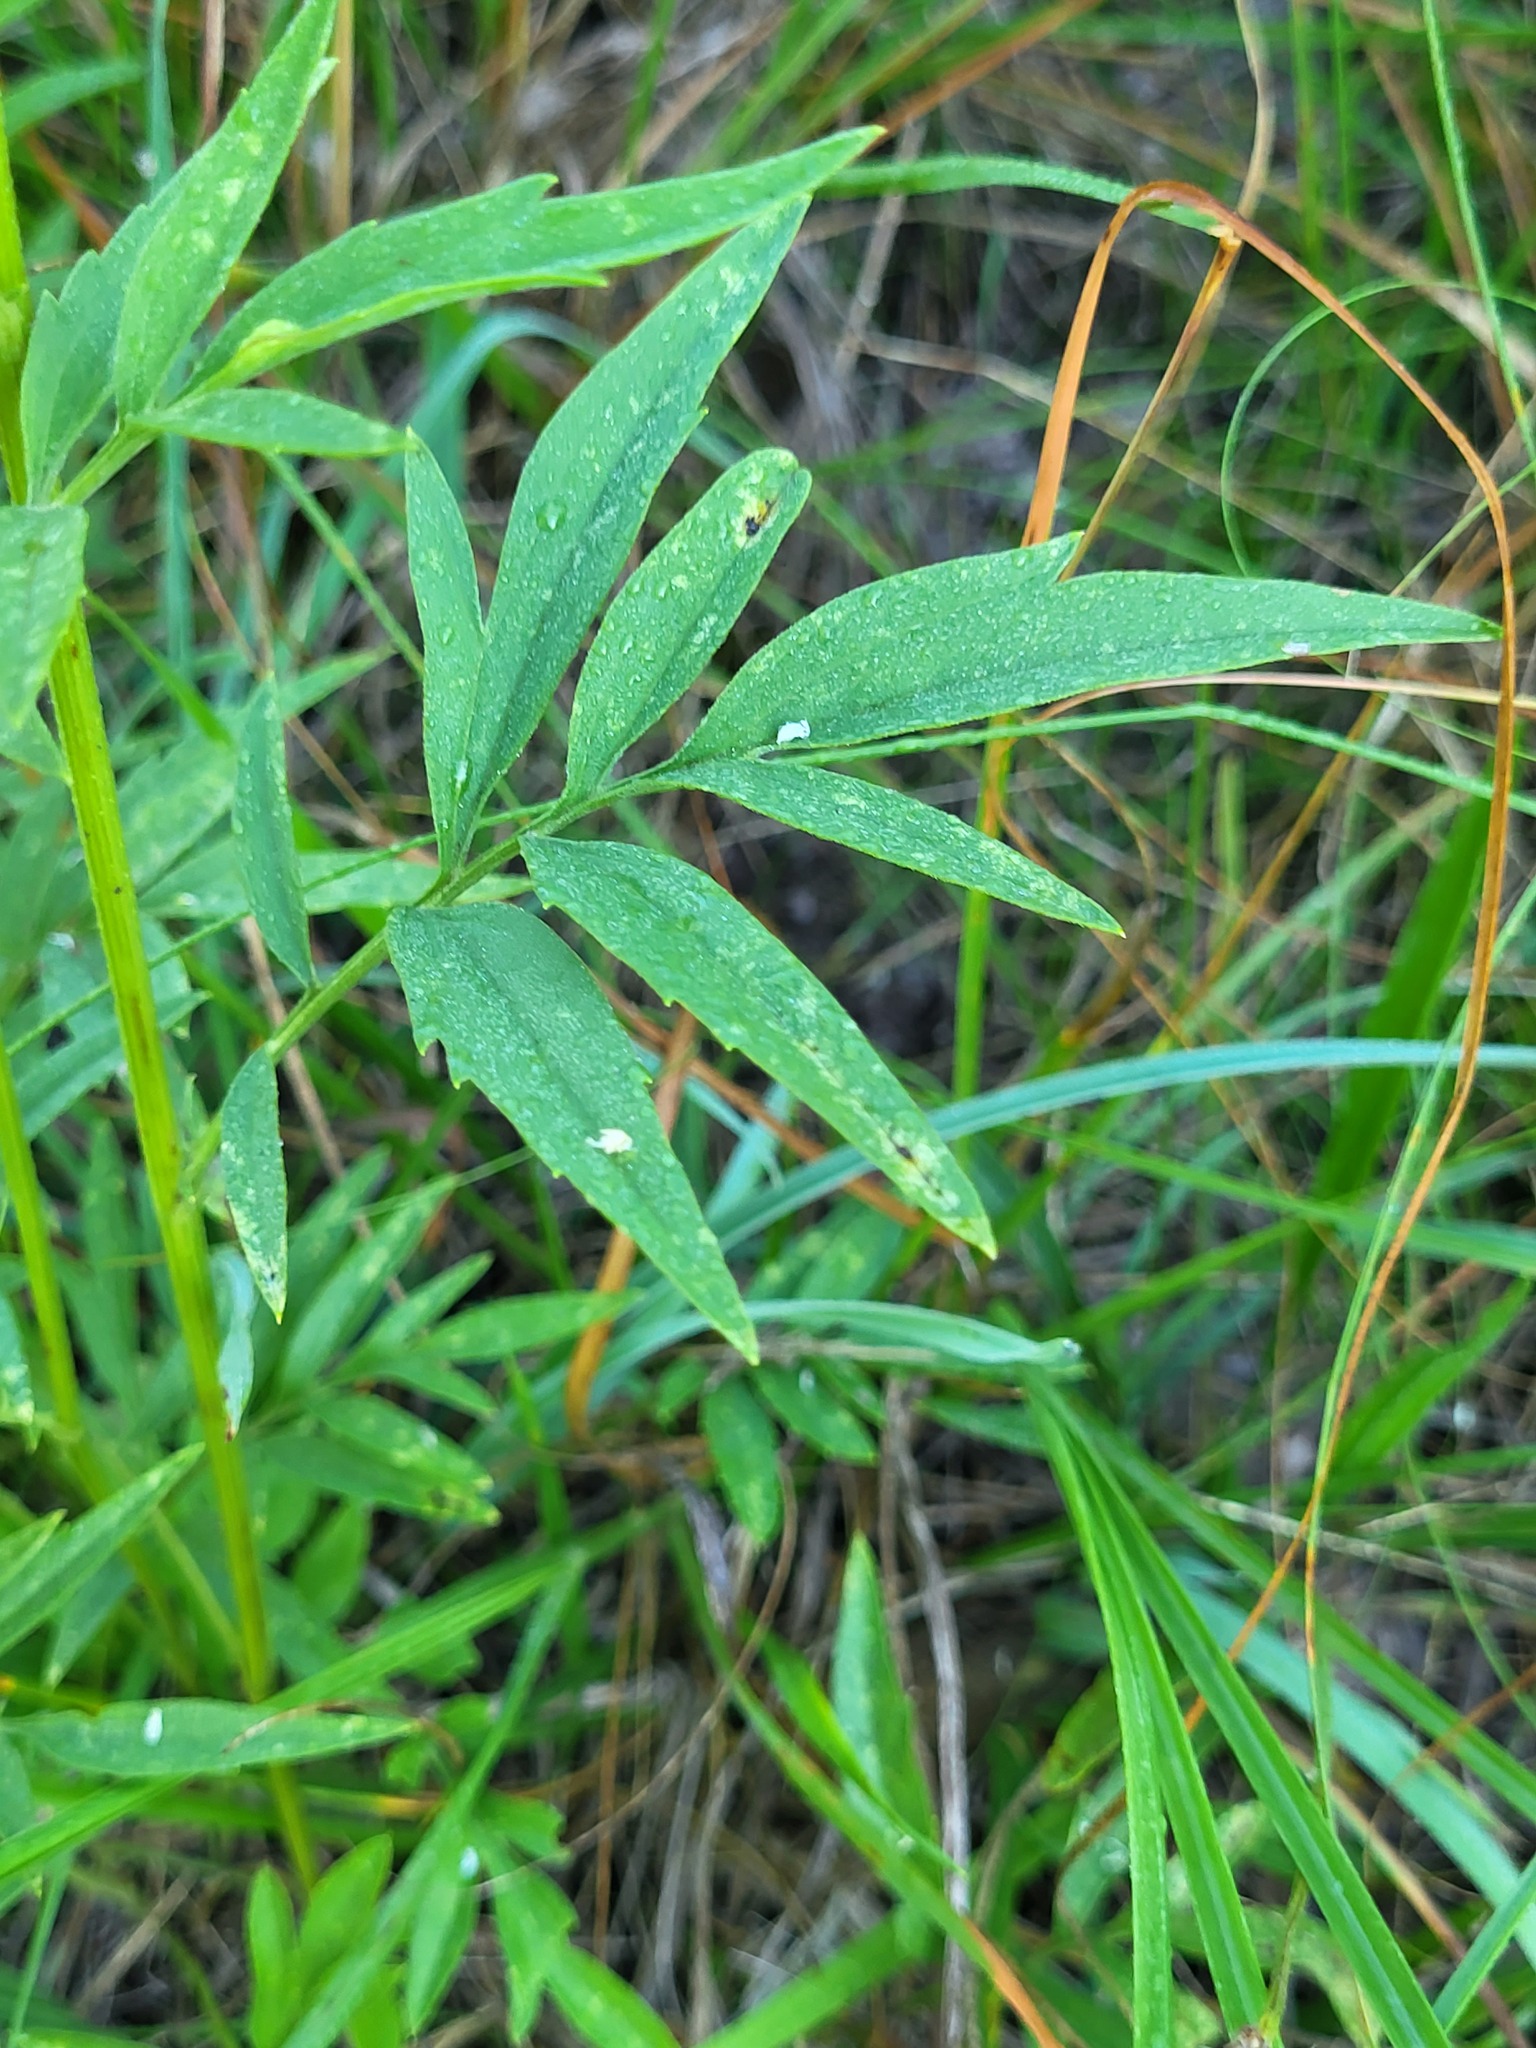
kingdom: Plantae
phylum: Tracheophyta
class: Magnoliopsida
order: Asterales
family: Asteraceae
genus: Ratibida
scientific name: Ratibida pinnata
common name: Drooping prairie-coneflower
